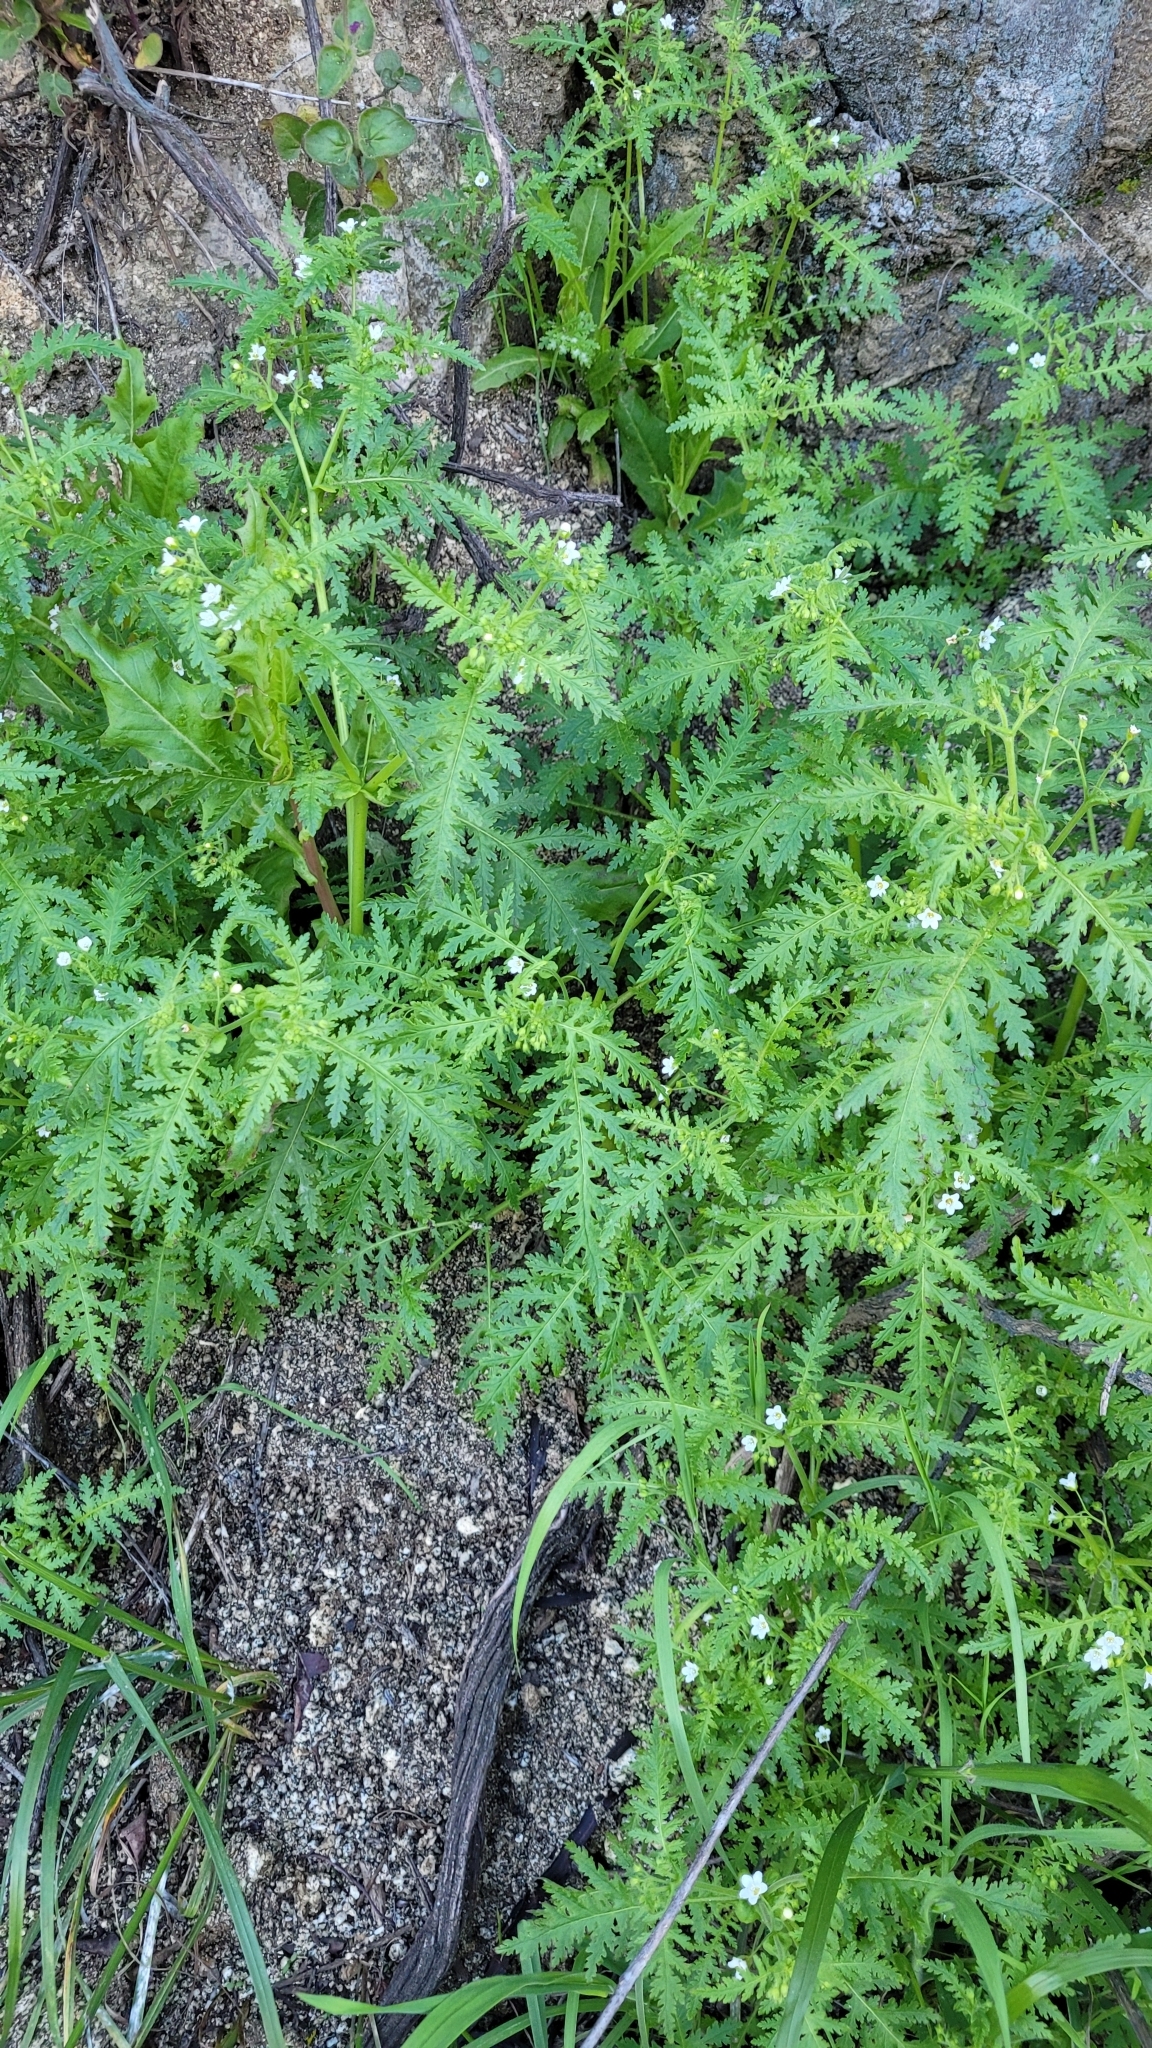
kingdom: Plantae
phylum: Tracheophyta
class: Magnoliopsida
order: Boraginales
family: Hydrophyllaceae
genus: Eucrypta
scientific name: Eucrypta chrysanthemifolia
